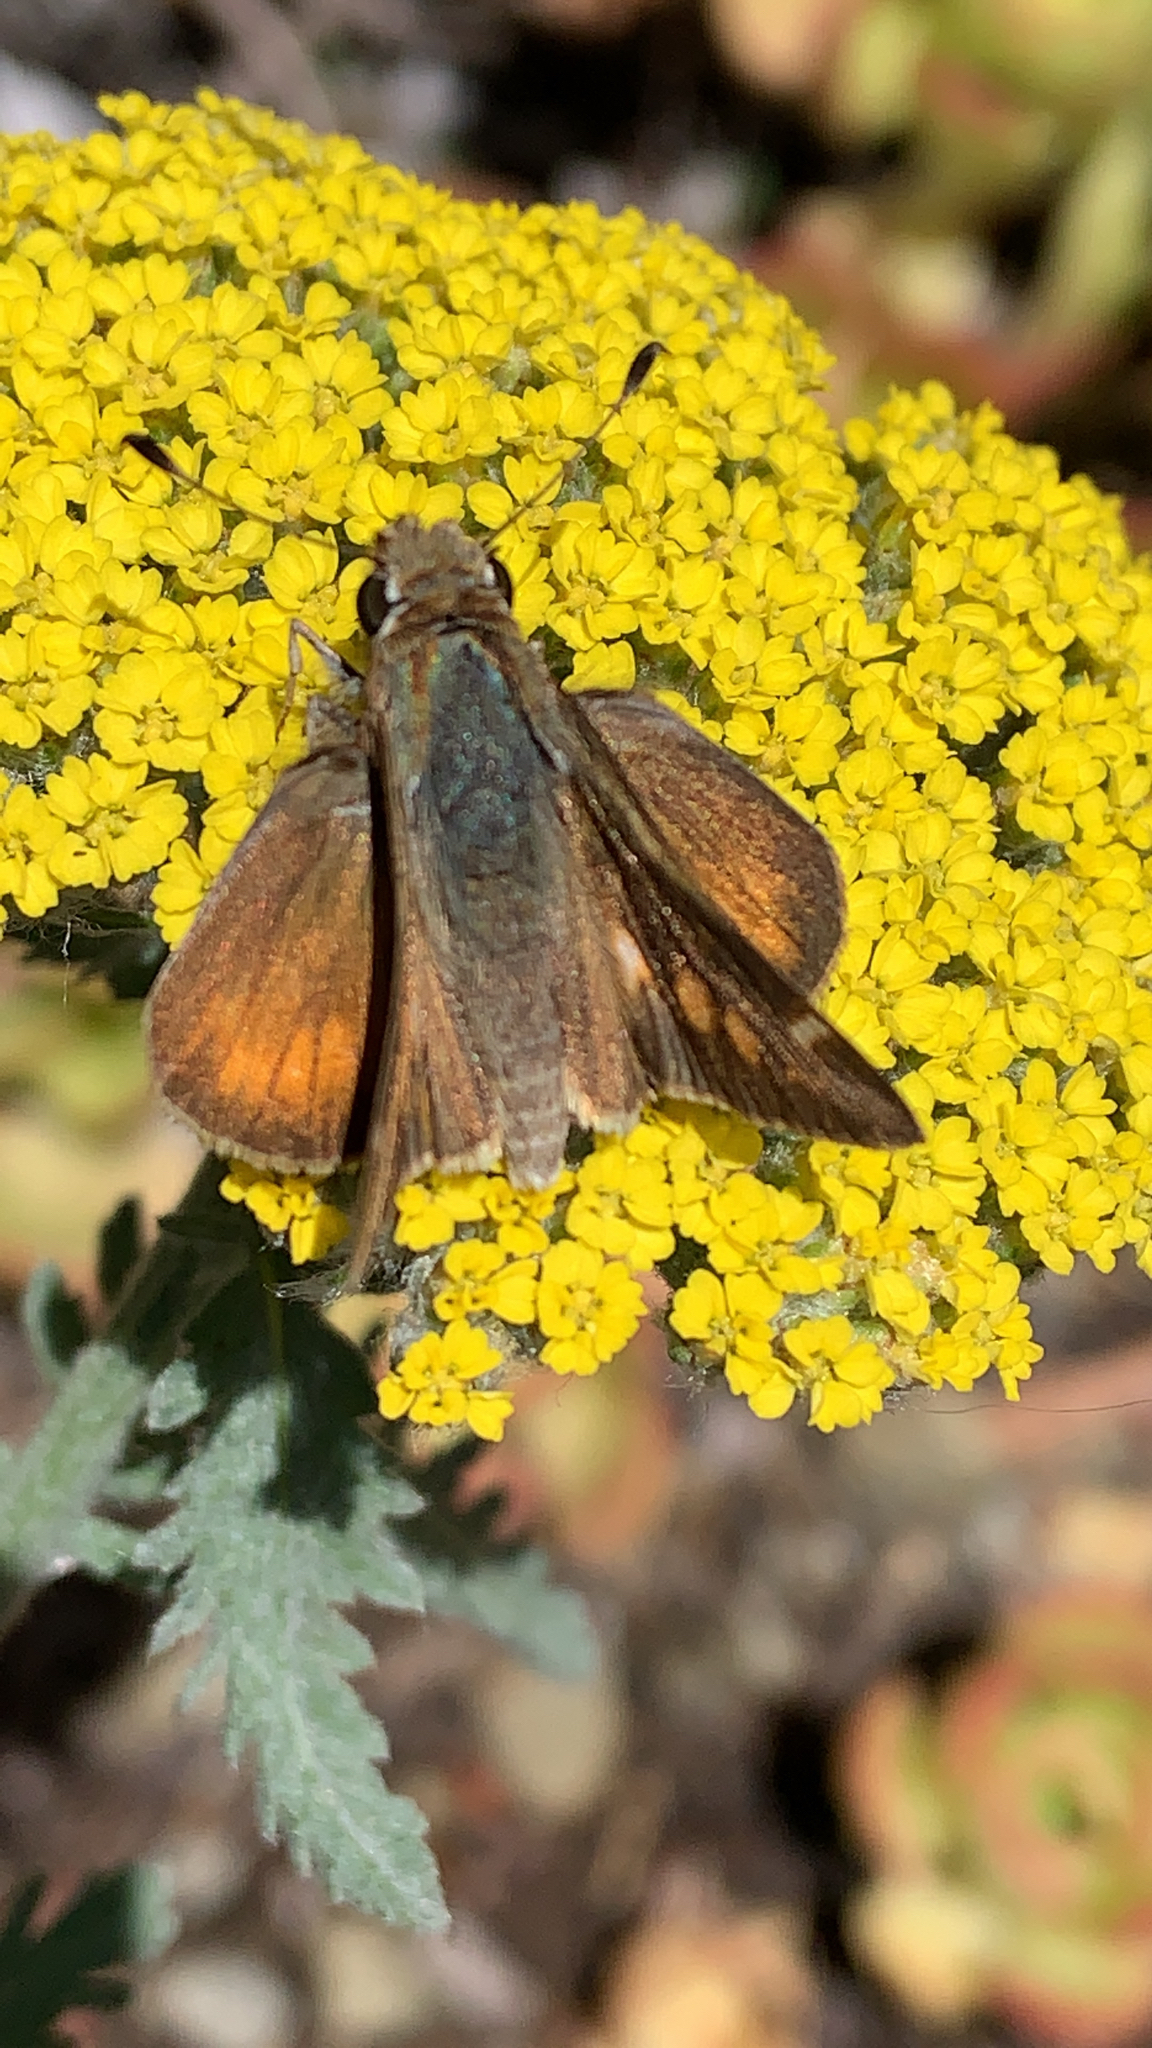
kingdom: Animalia
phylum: Arthropoda
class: Insecta
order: Lepidoptera
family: Hesperiidae
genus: Lon
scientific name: Lon melane
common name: Umber skipper
